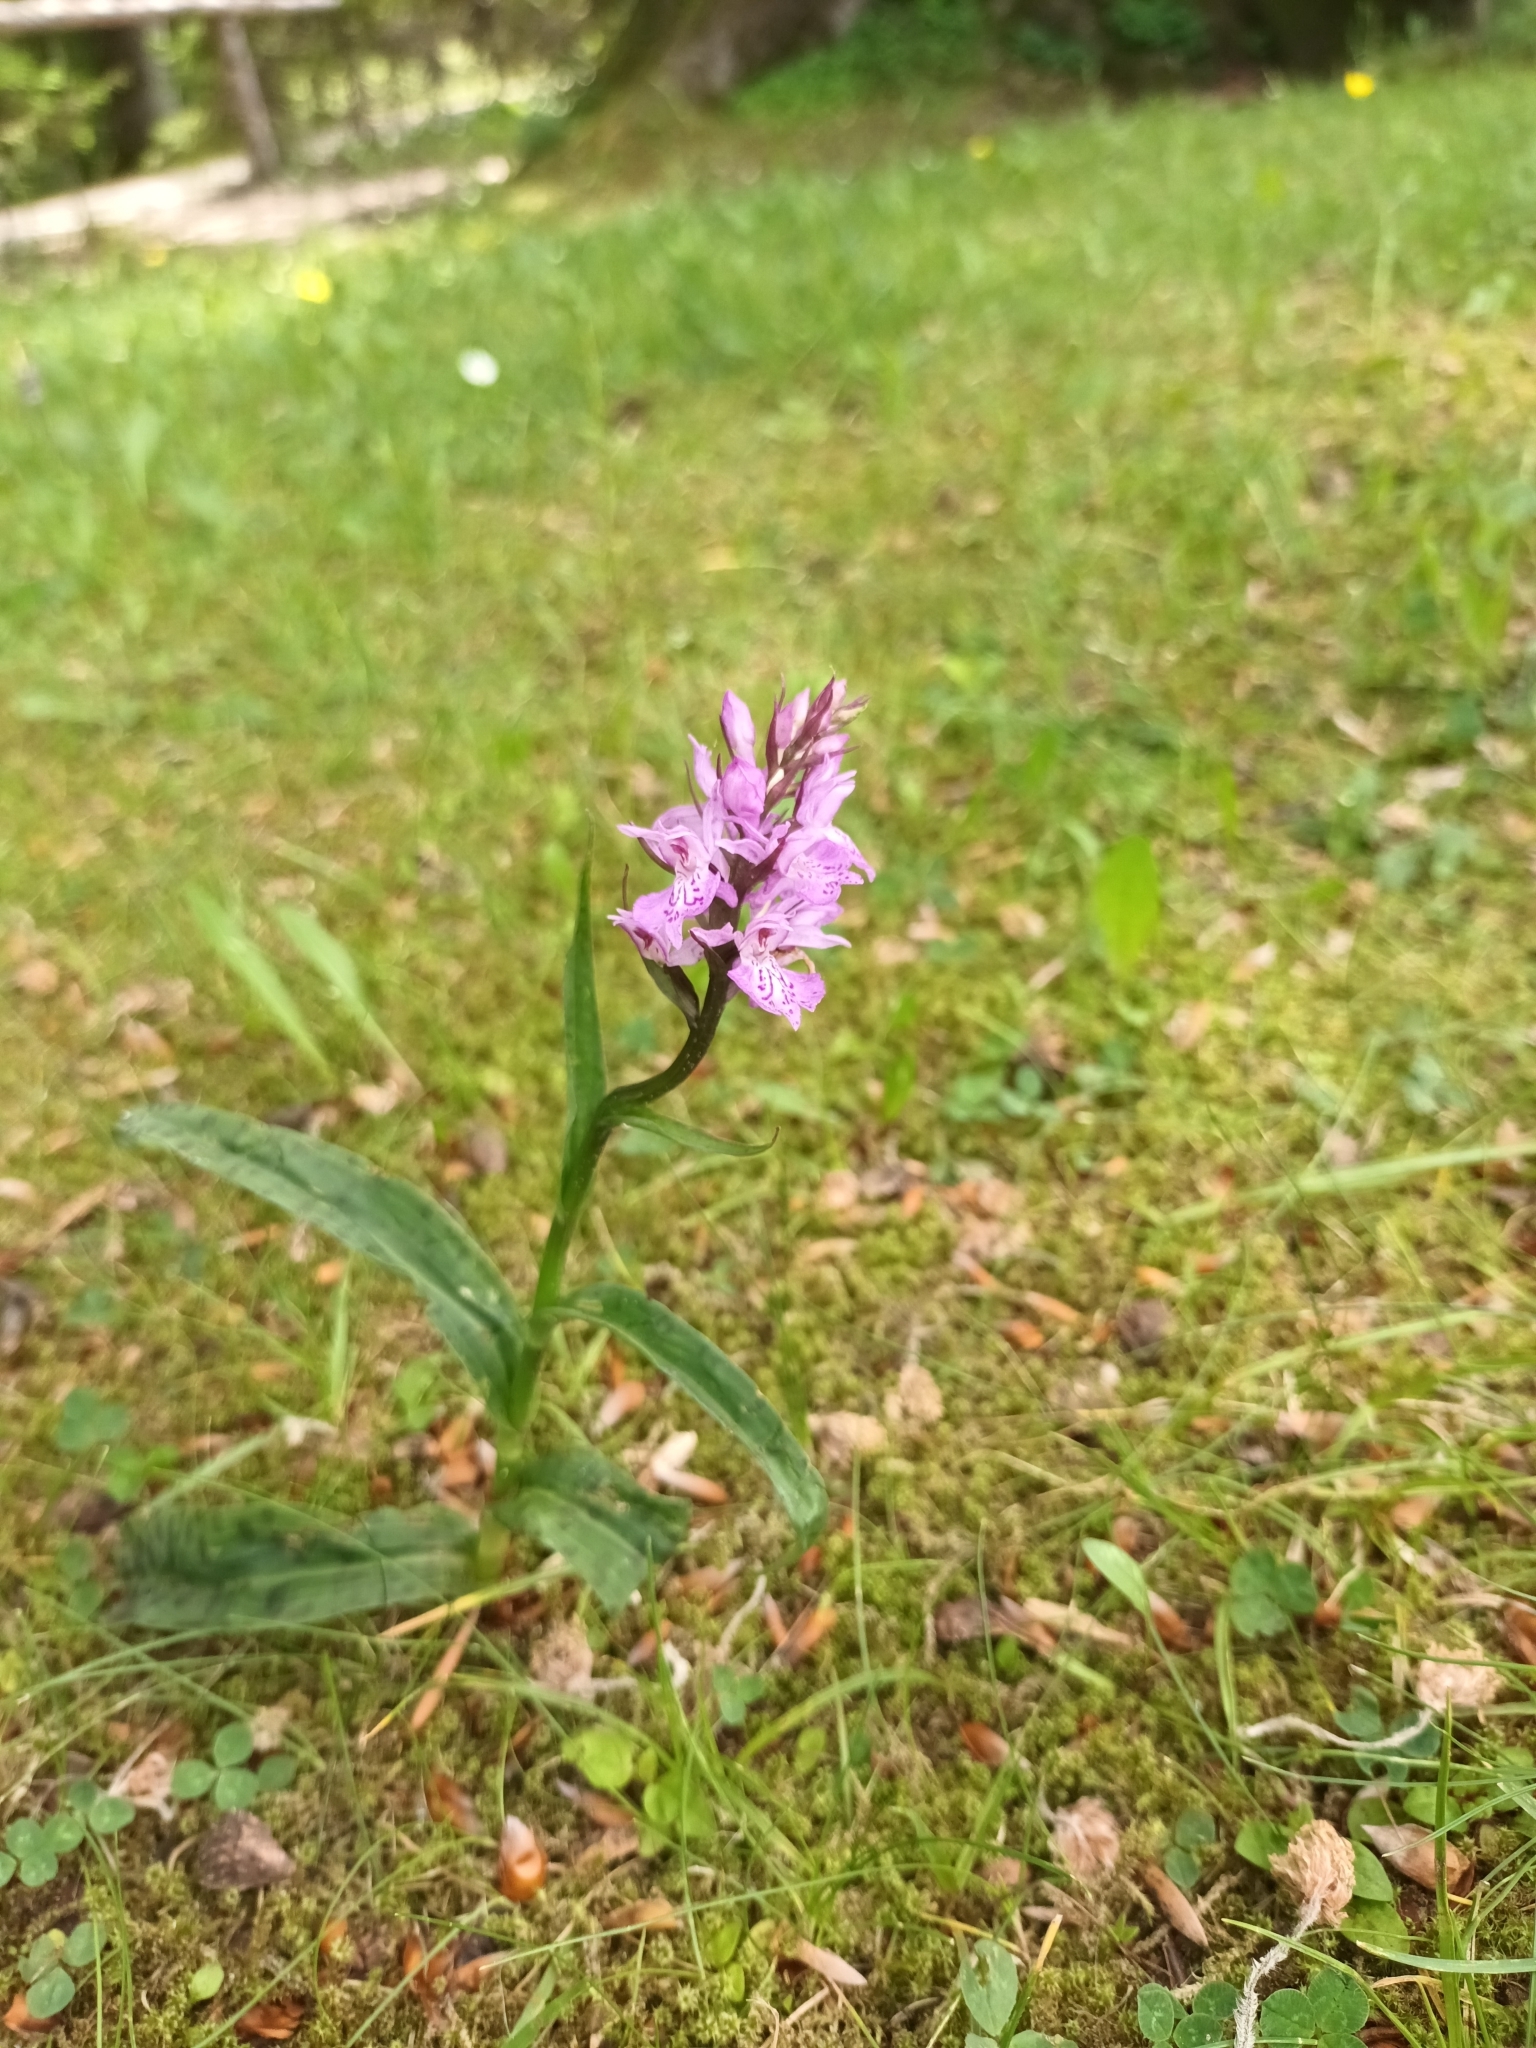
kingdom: Plantae
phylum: Tracheophyta
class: Liliopsida
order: Asparagales
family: Orchidaceae
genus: Dactylorhiza
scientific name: Dactylorhiza maculata
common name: Heath spotted-orchid
